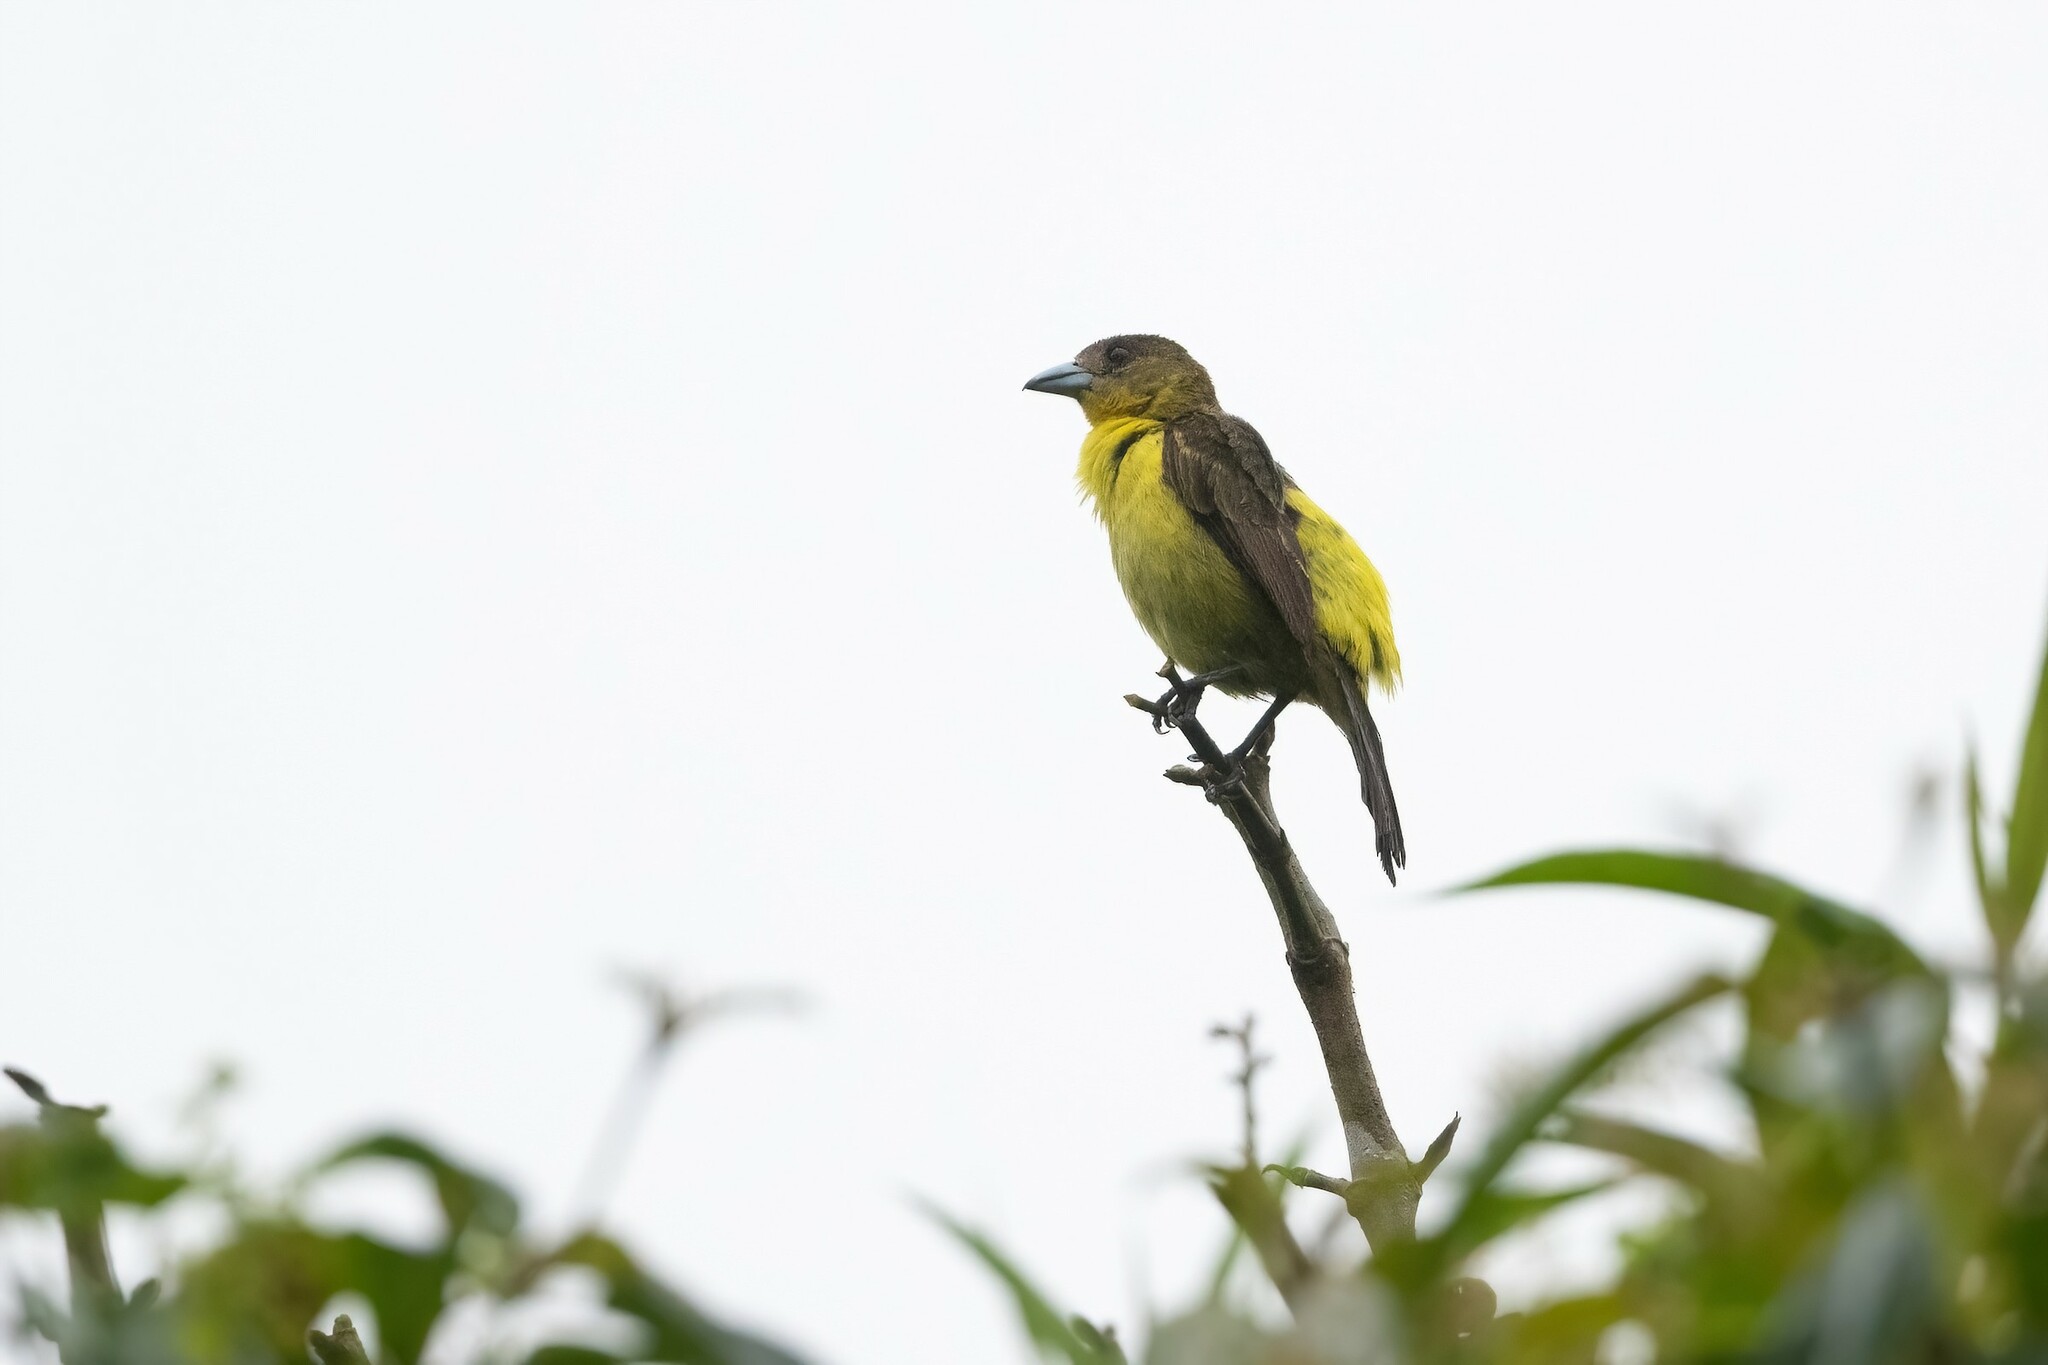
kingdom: Animalia
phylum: Chordata
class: Aves
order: Passeriformes
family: Thraupidae
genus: Ramphocelus
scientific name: Ramphocelus flammigerus
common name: Flame-rumped tanager
